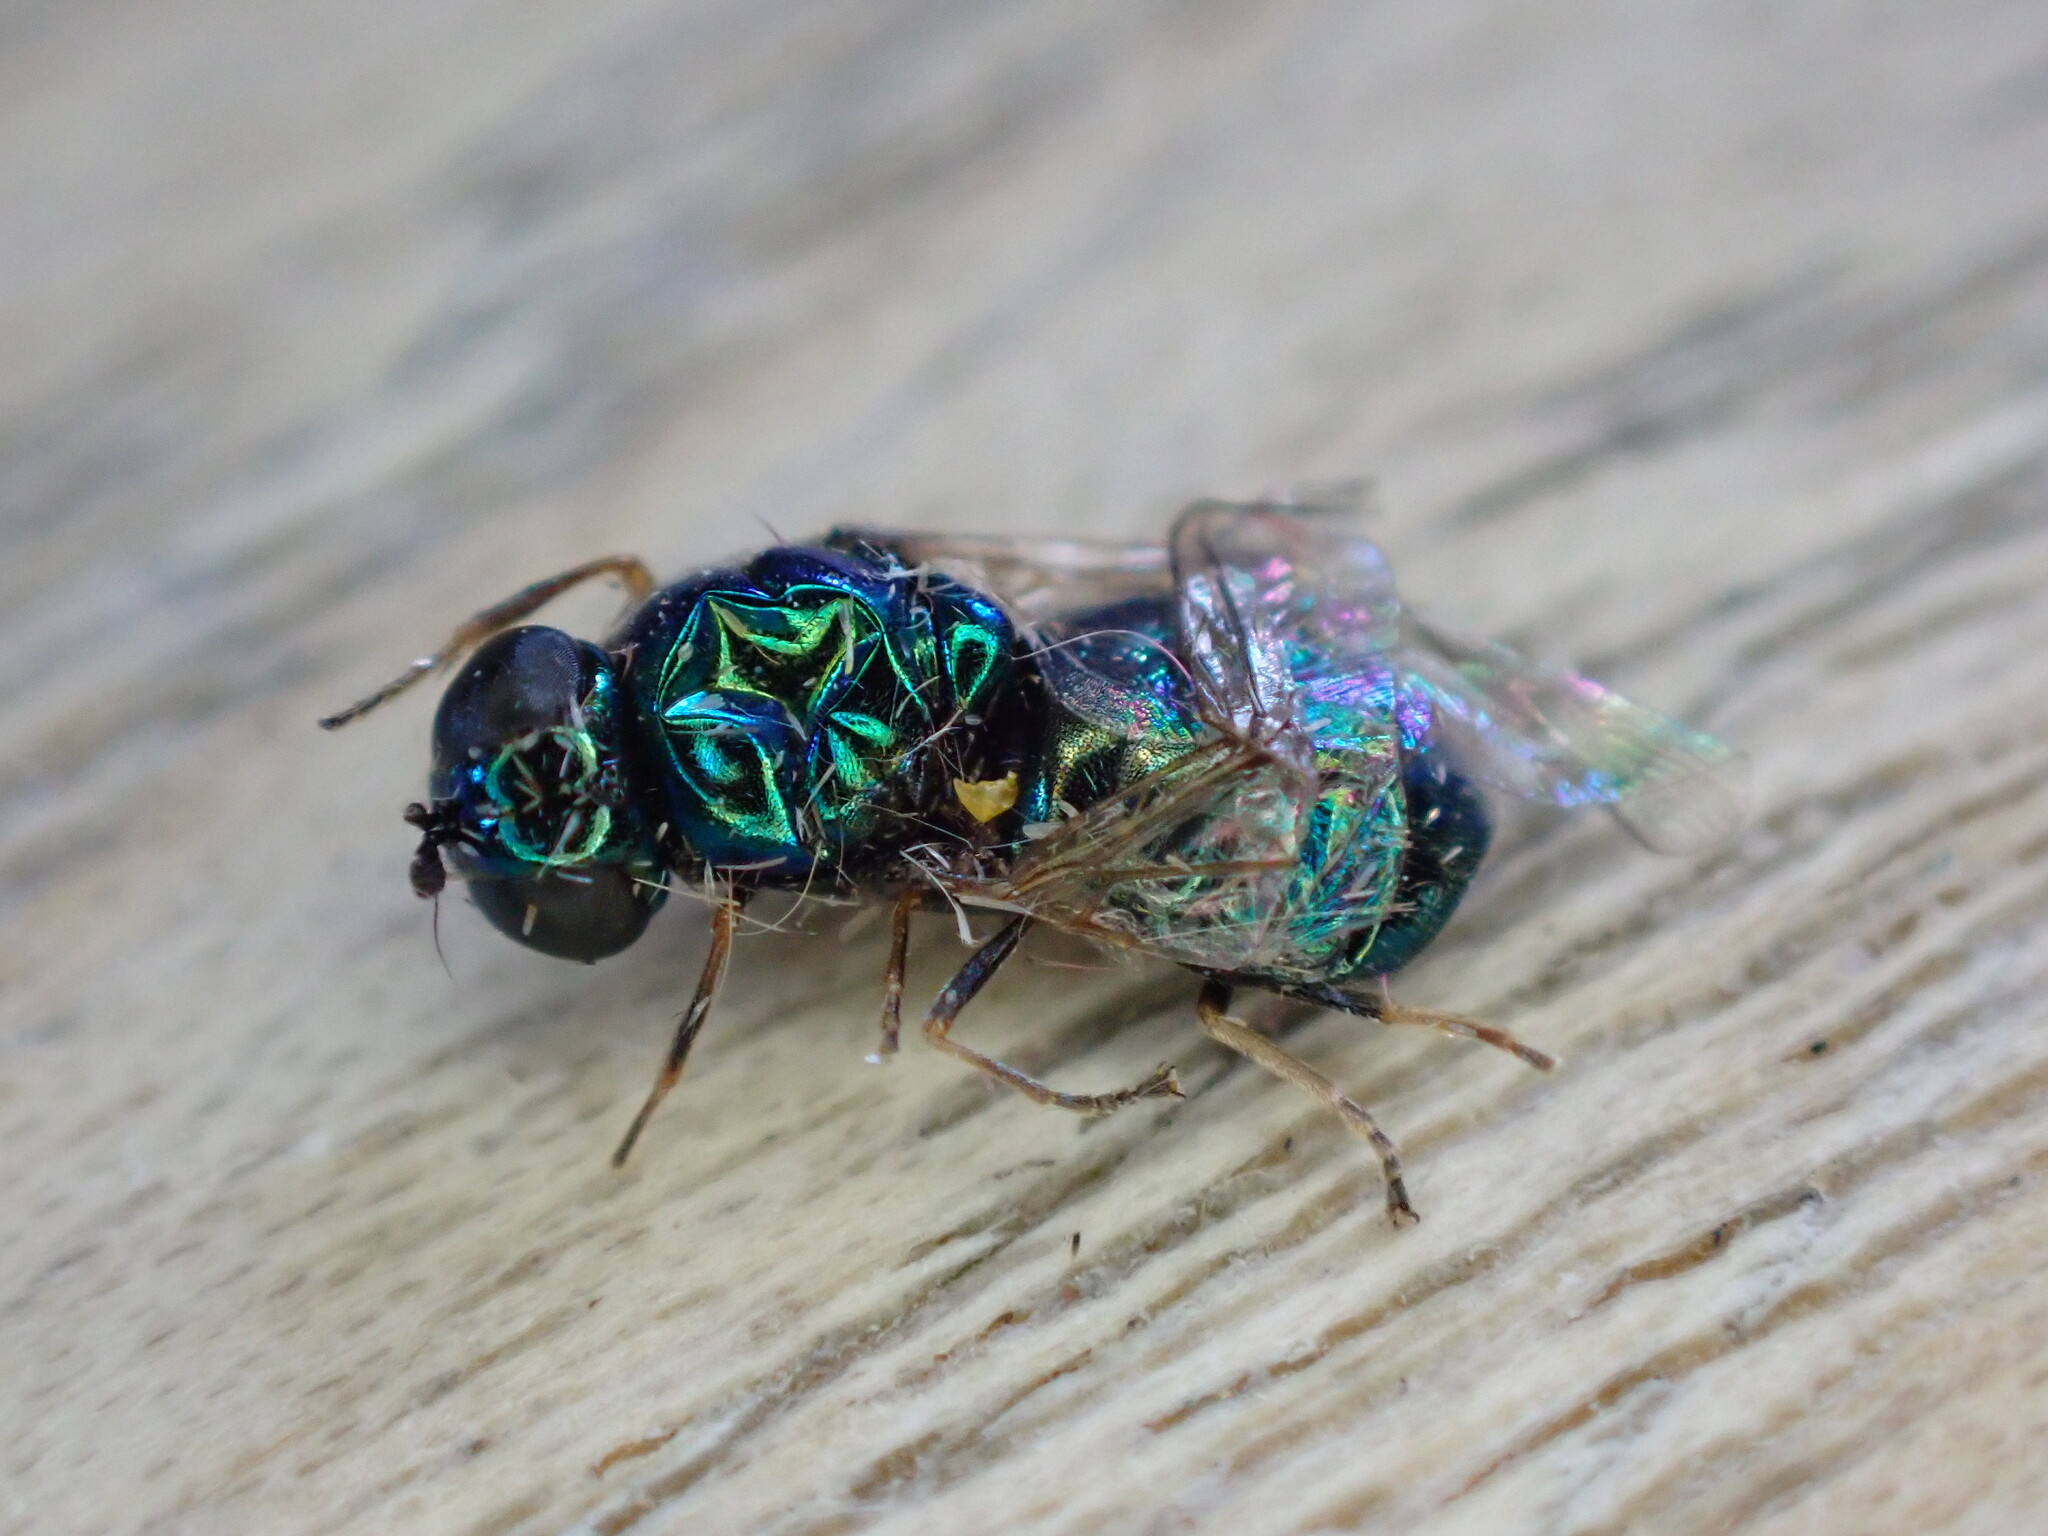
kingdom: Animalia
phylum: Arthropoda
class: Insecta
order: Diptera
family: Stratiomyidae
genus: Microchrysa
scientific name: Microchrysa polita
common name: Black-horned gem
